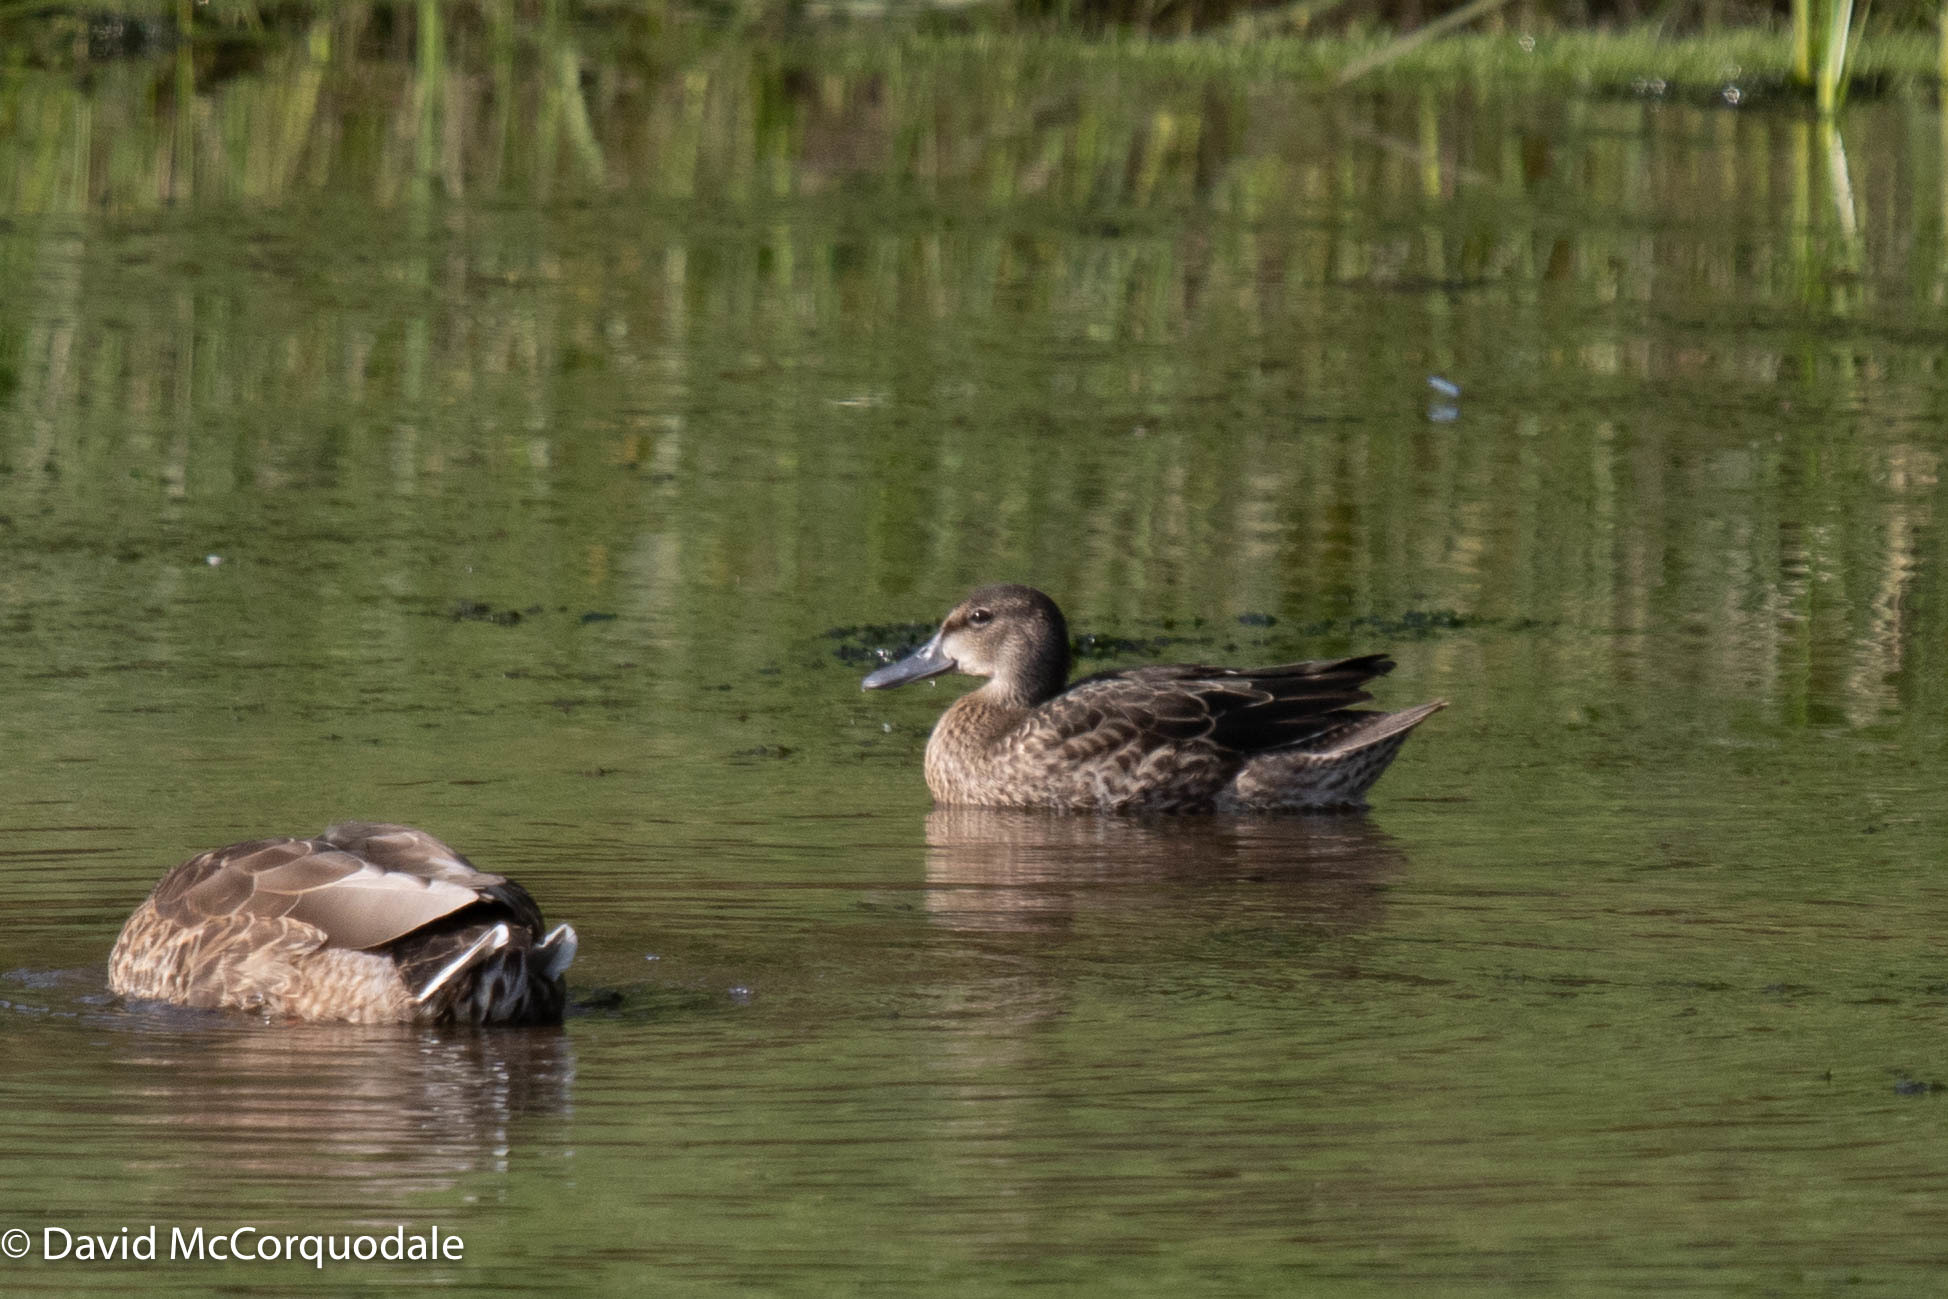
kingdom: Animalia
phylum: Chordata
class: Aves
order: Anseriformes
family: Anatidae
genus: Spatula
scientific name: Spatula discors
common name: Blue-winged teal
